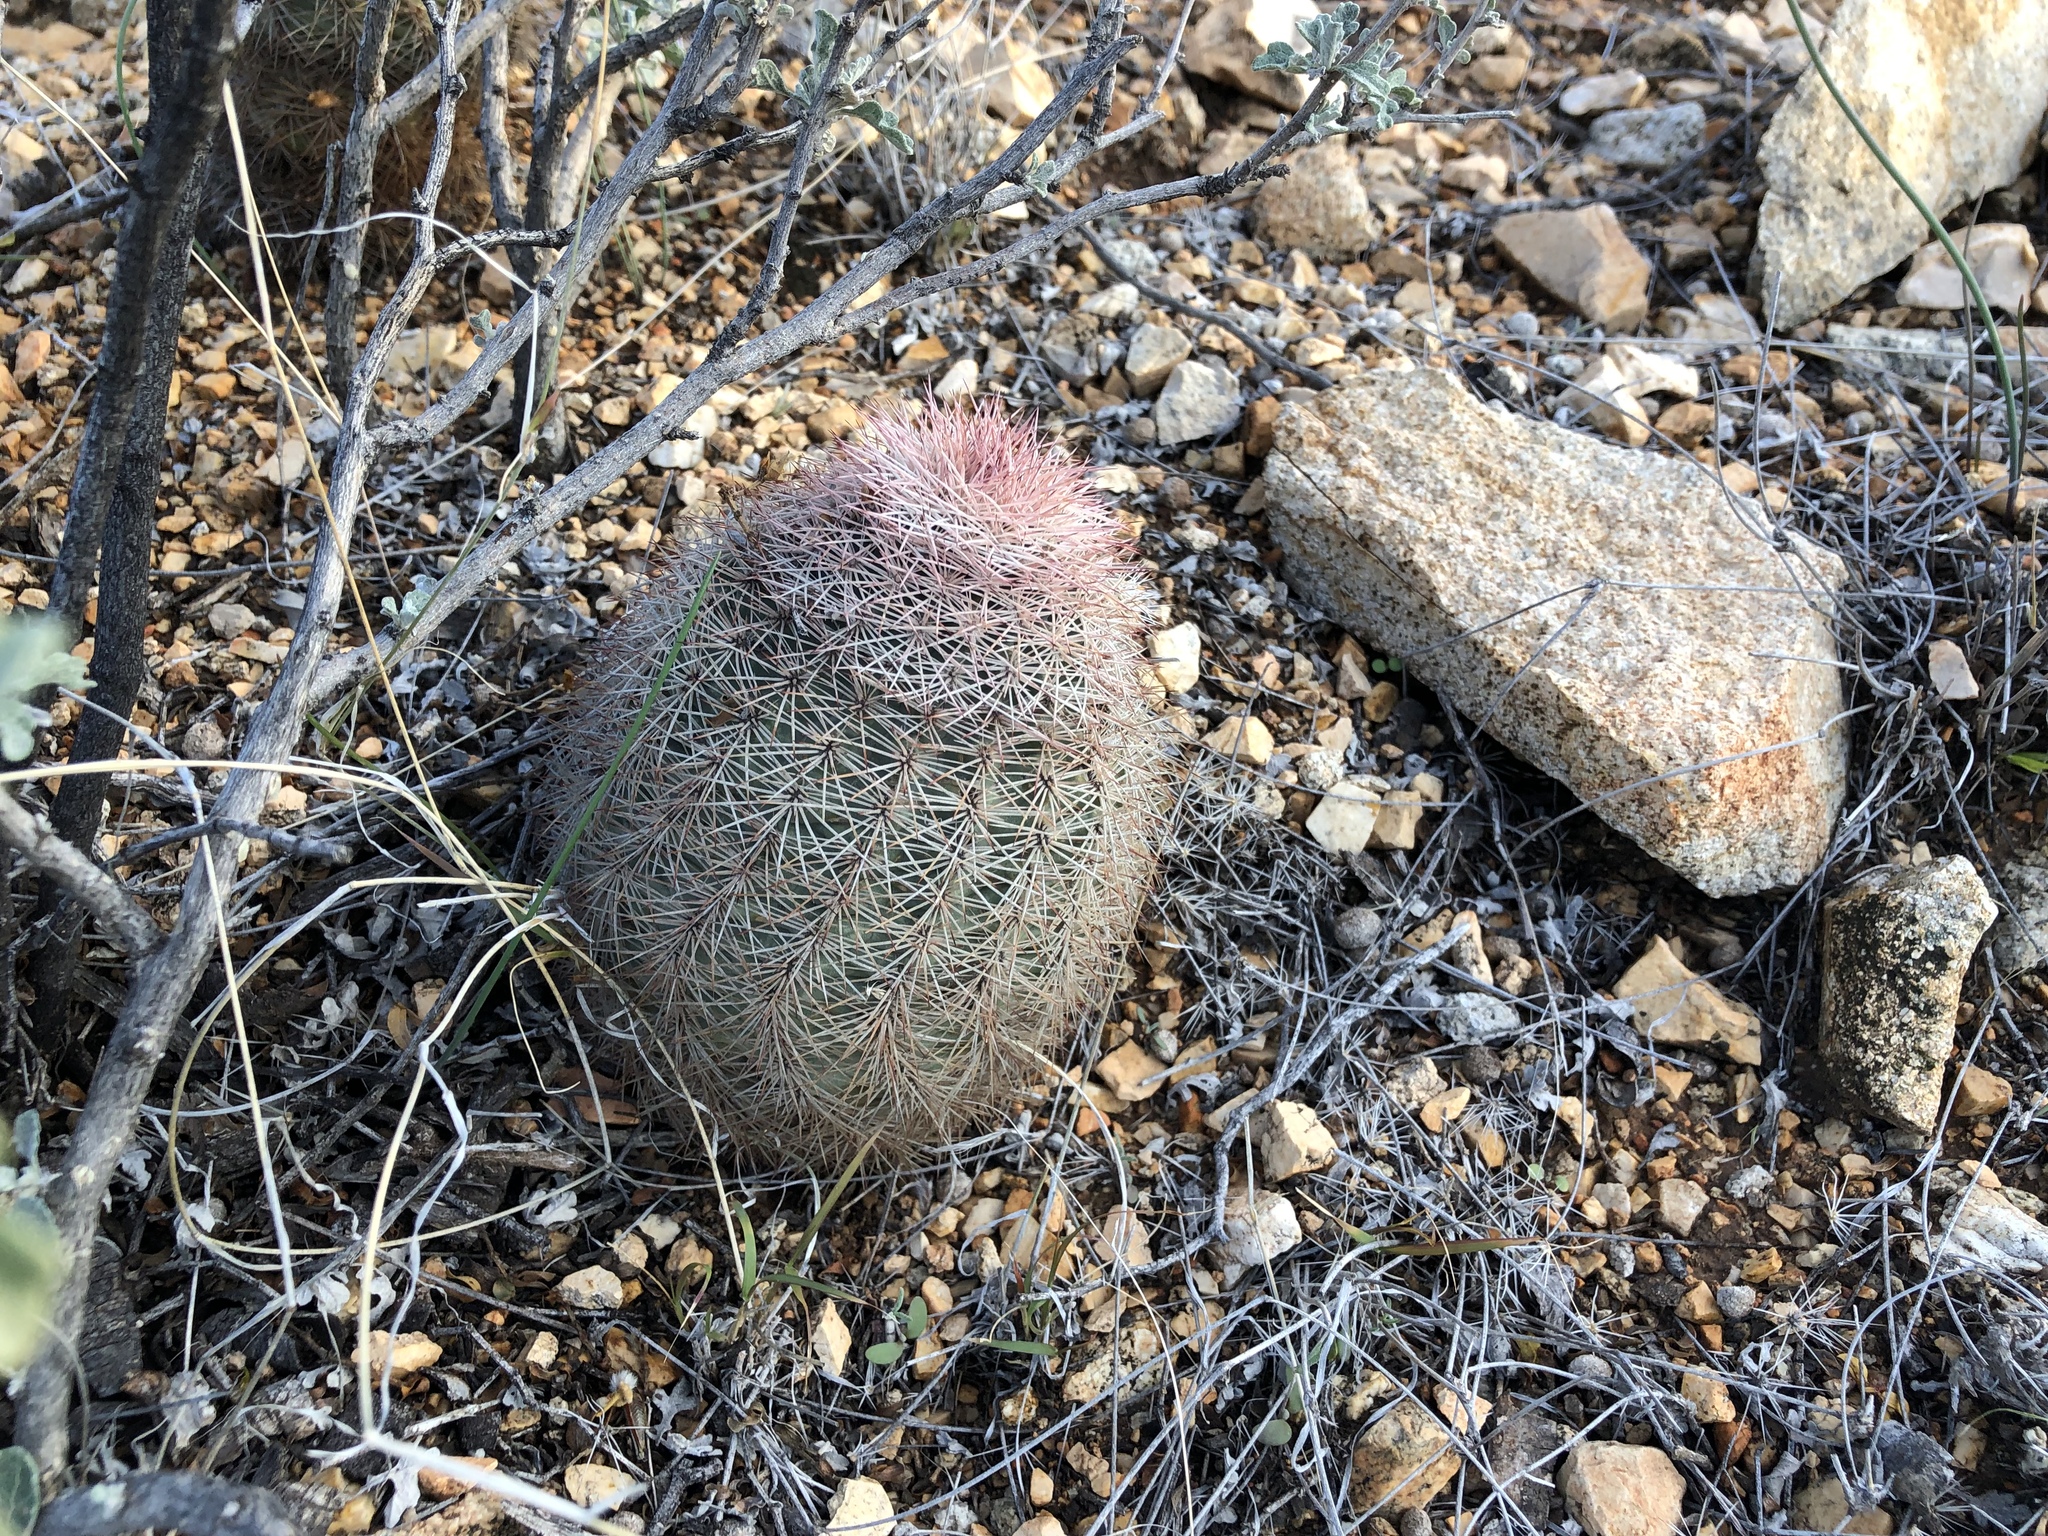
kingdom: Plantae
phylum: Tracheophyta
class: Magnoliopsida
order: Caryophyllales
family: Cactaceae
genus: Echinocereus
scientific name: Echinocereus dasyacanthus
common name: Spiny hedgehog cactus
